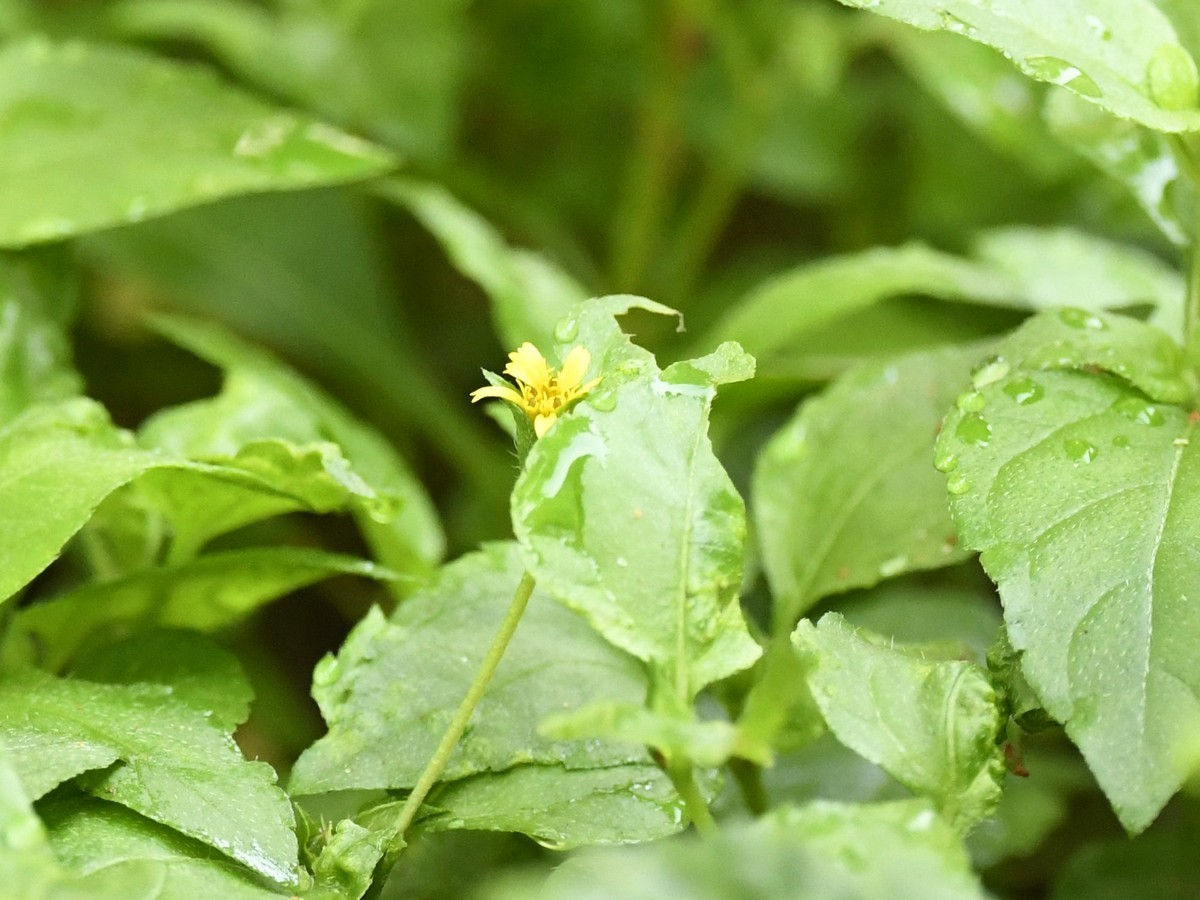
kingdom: Plantae
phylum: Tracheophyta
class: Magnoliopsida
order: Asterales
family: Asteraceae
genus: Calyptocarpus
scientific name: Calyptocarpus vialis
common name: Straggler daisy
